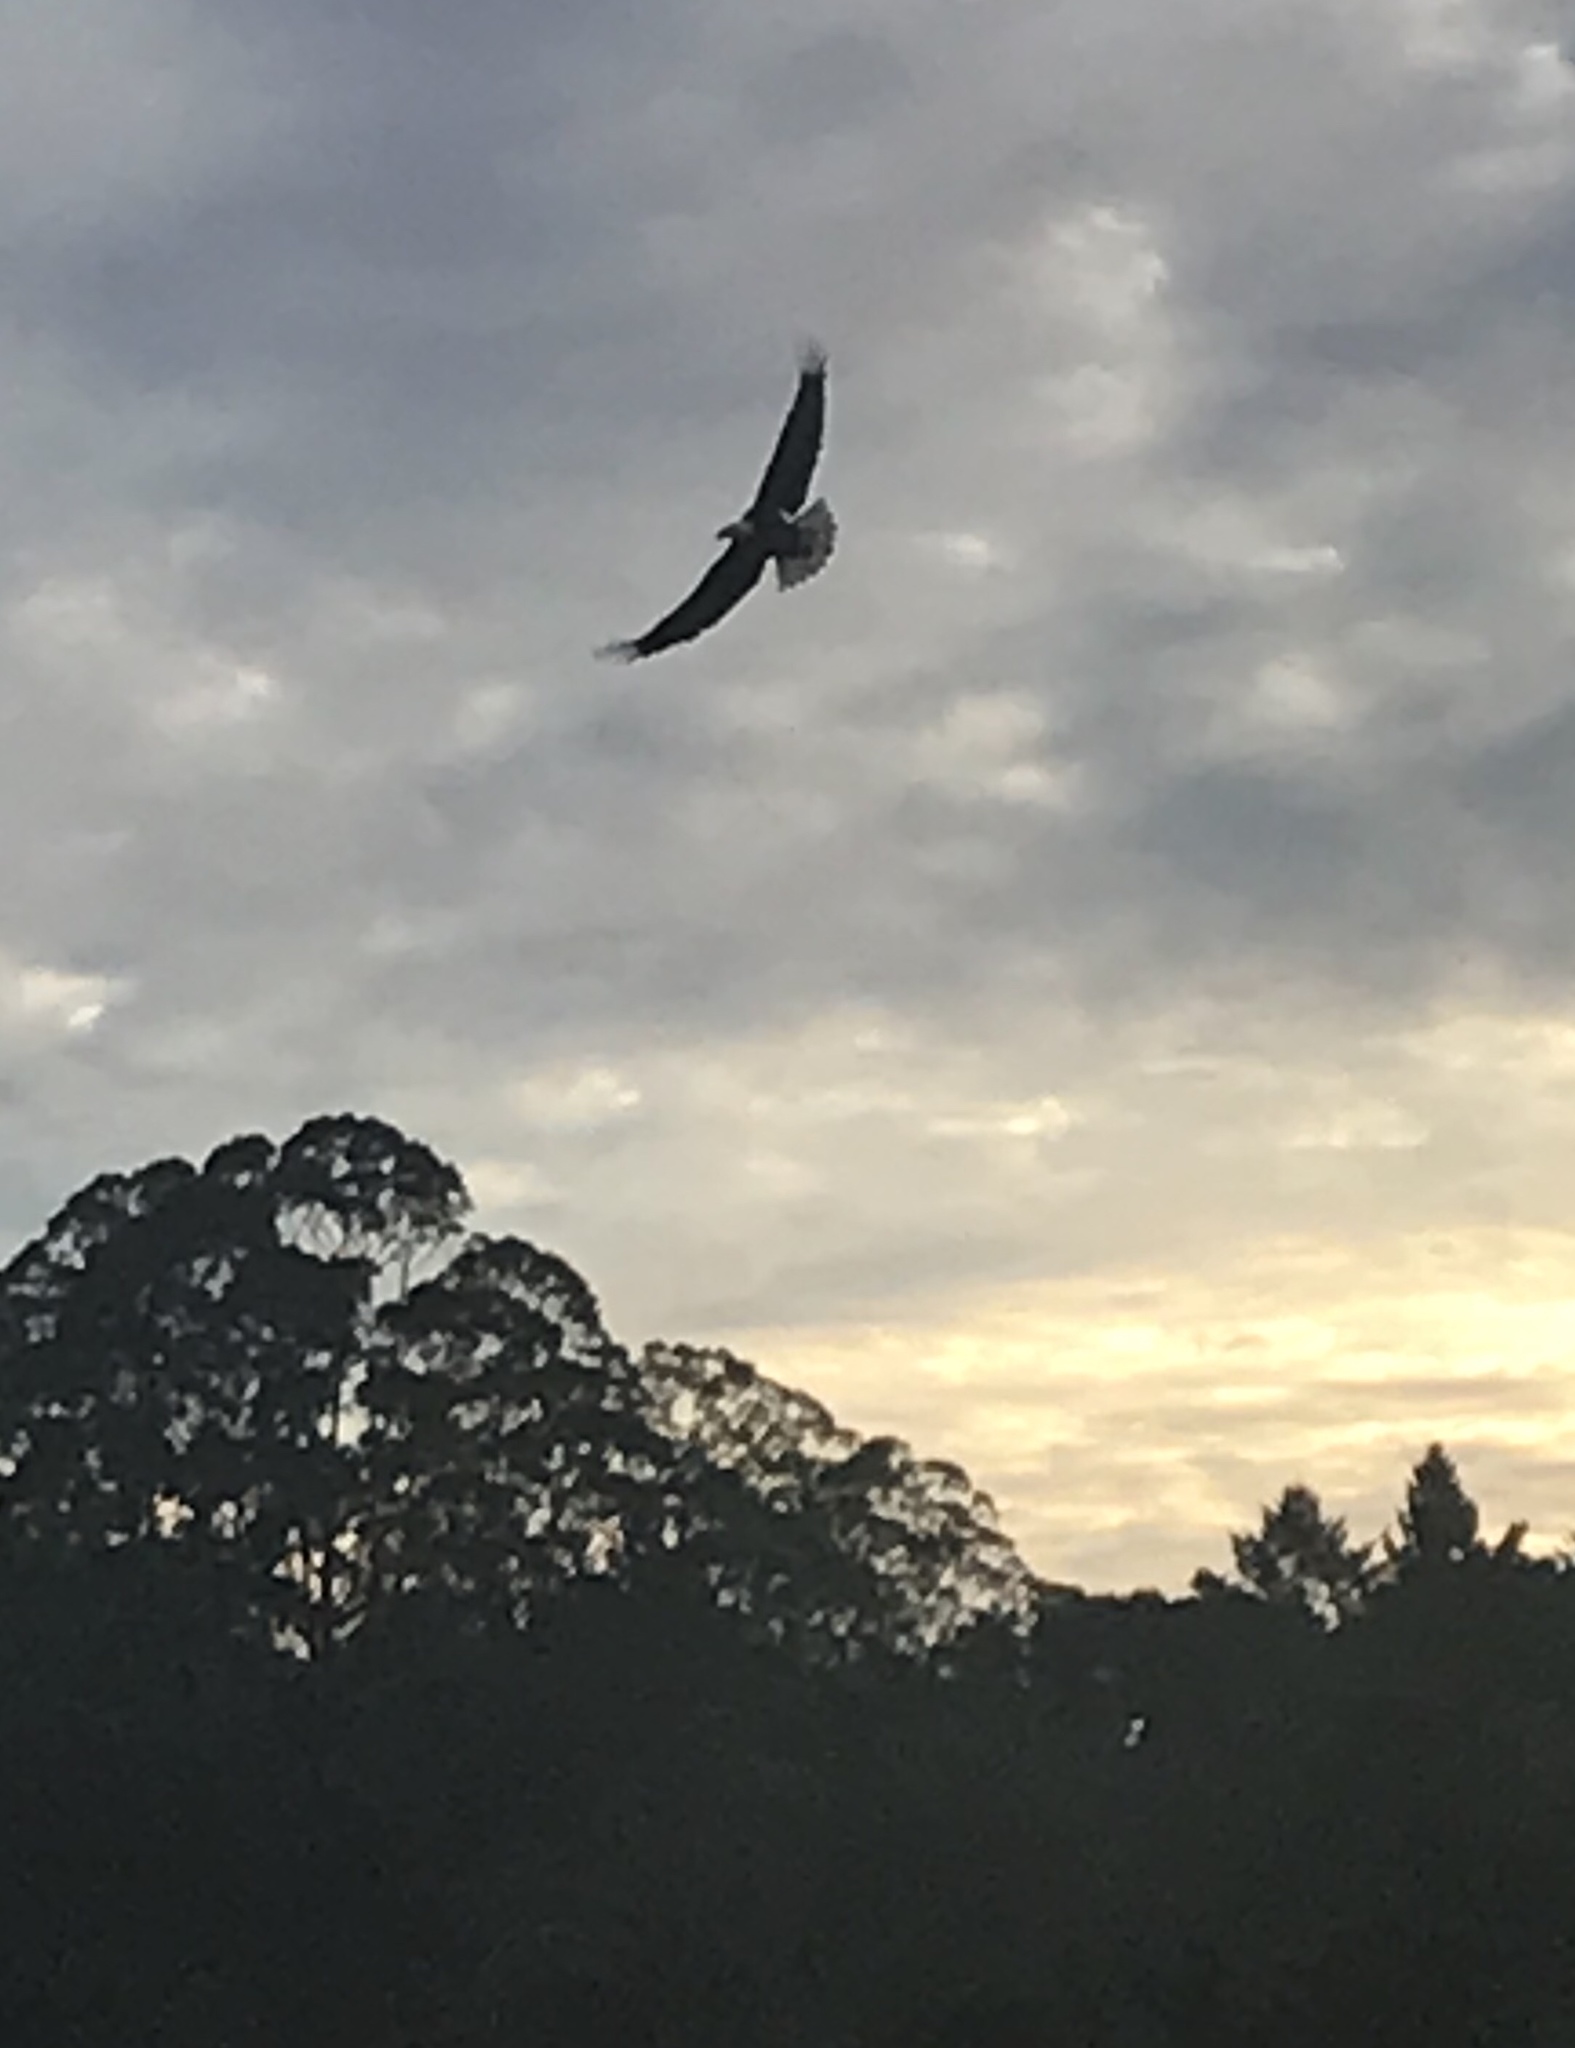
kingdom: Animalia
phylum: Chordata
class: Aves
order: Accipitriformes
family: Accipitridae
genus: Haliaeetus
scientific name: Haliaeetus leucocephalus
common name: Bald eagle
